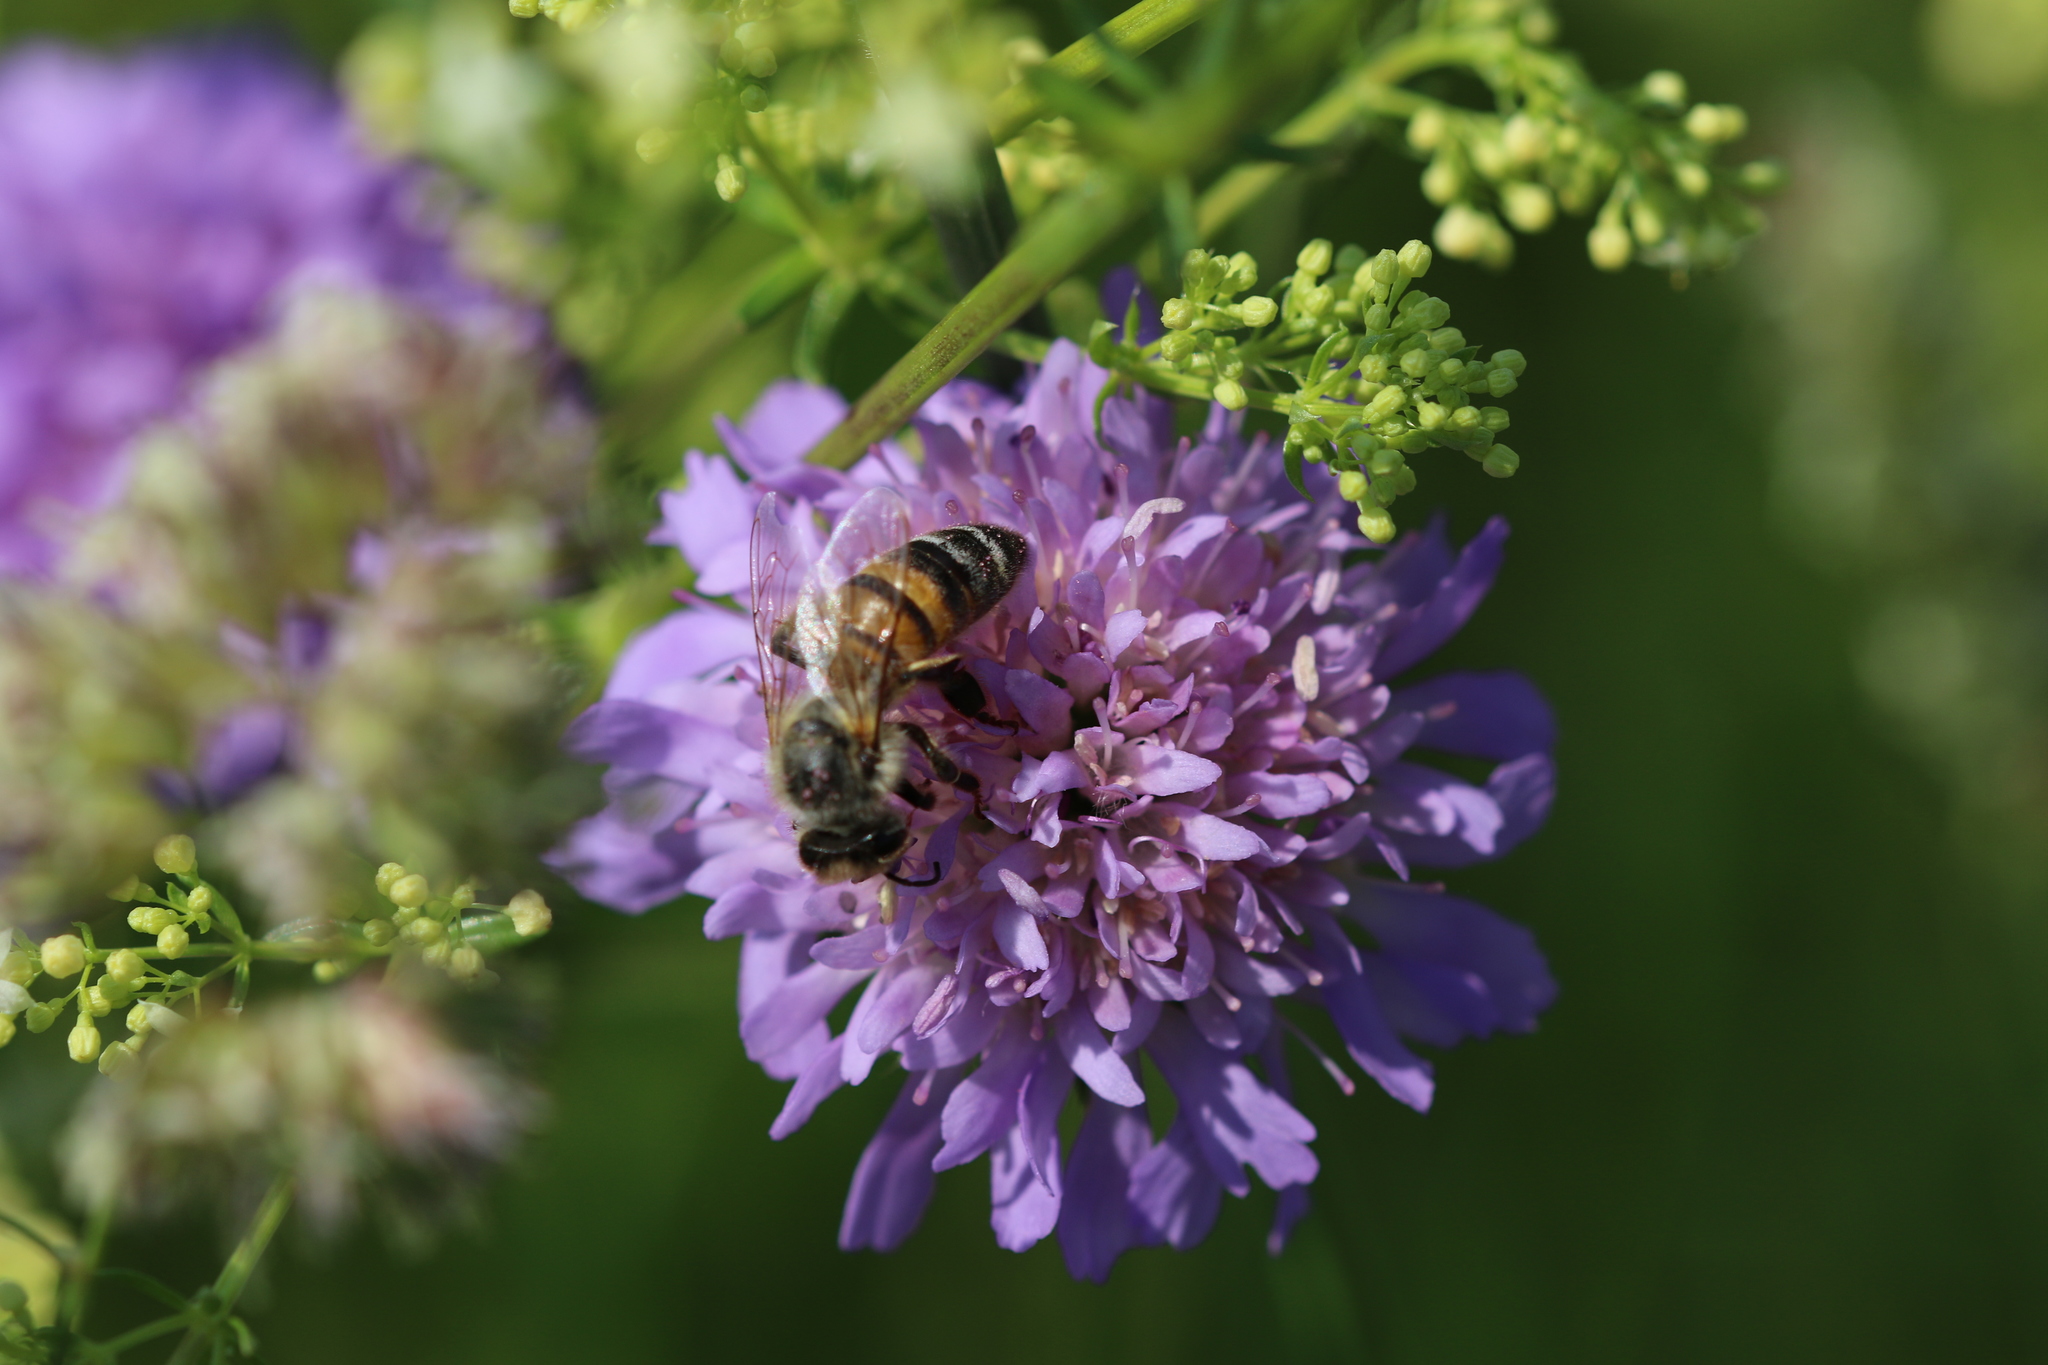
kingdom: Animalia
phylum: Arthropoda
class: Insecta
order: Hymenoptera
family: Apidae
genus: Apis
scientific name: Apis mellifera
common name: Honey bee
